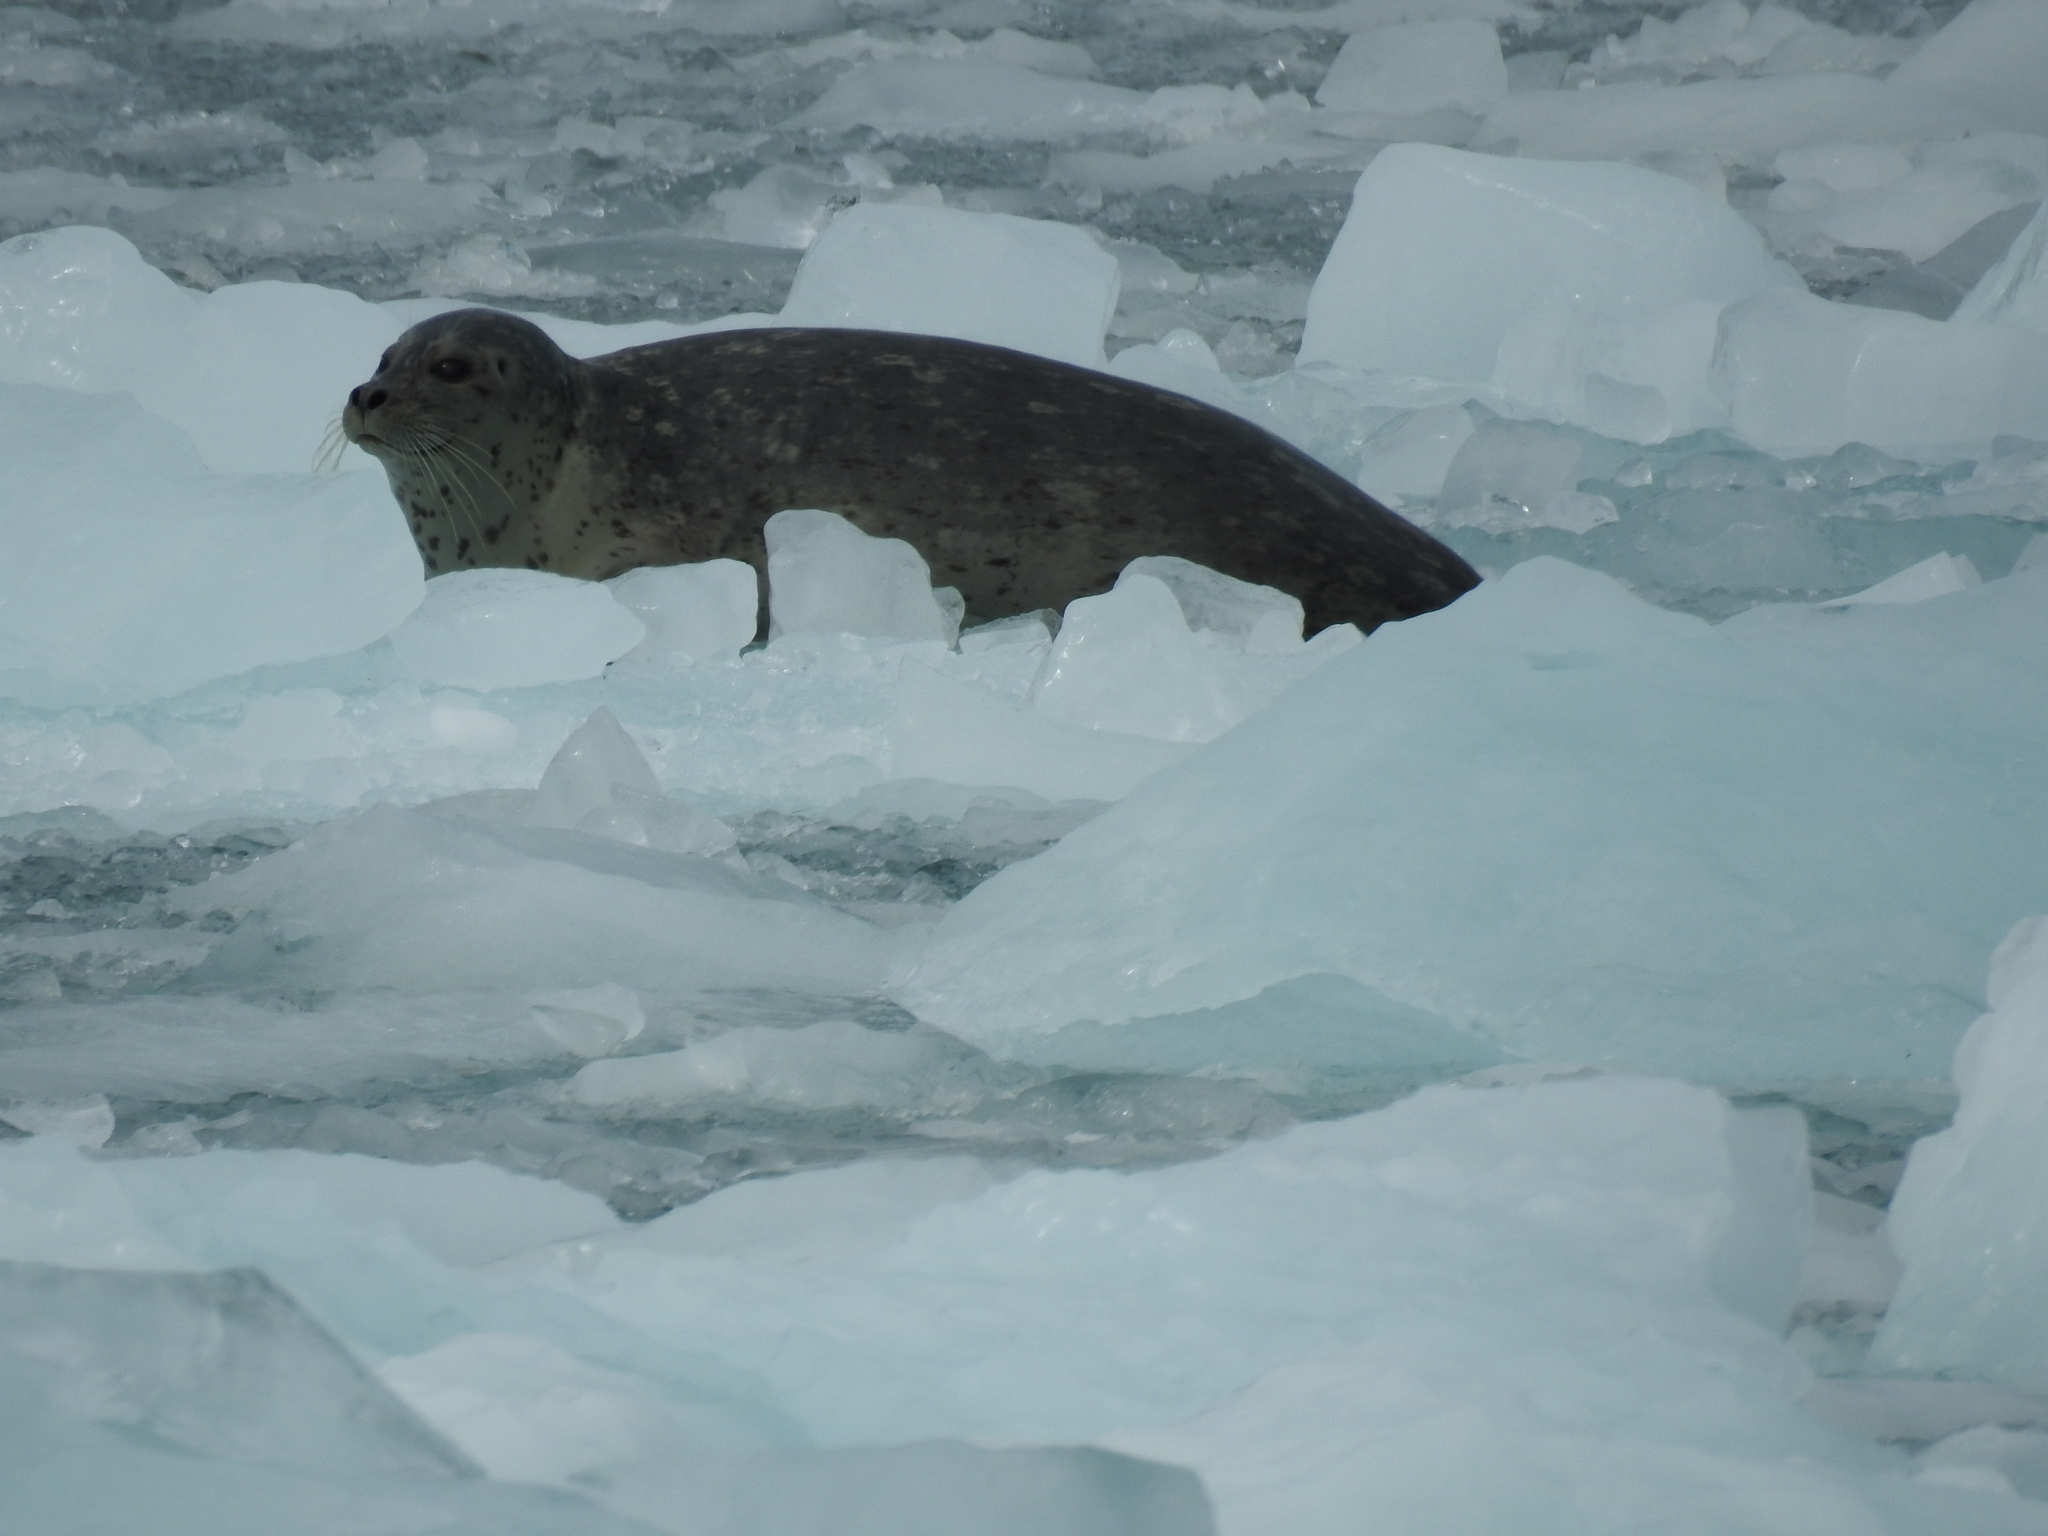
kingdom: Animalia
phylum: Chordata
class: Mammalia
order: Carnivora
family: Phocidae
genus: Phoca
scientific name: Phoca vitulina
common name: Harbor seal
